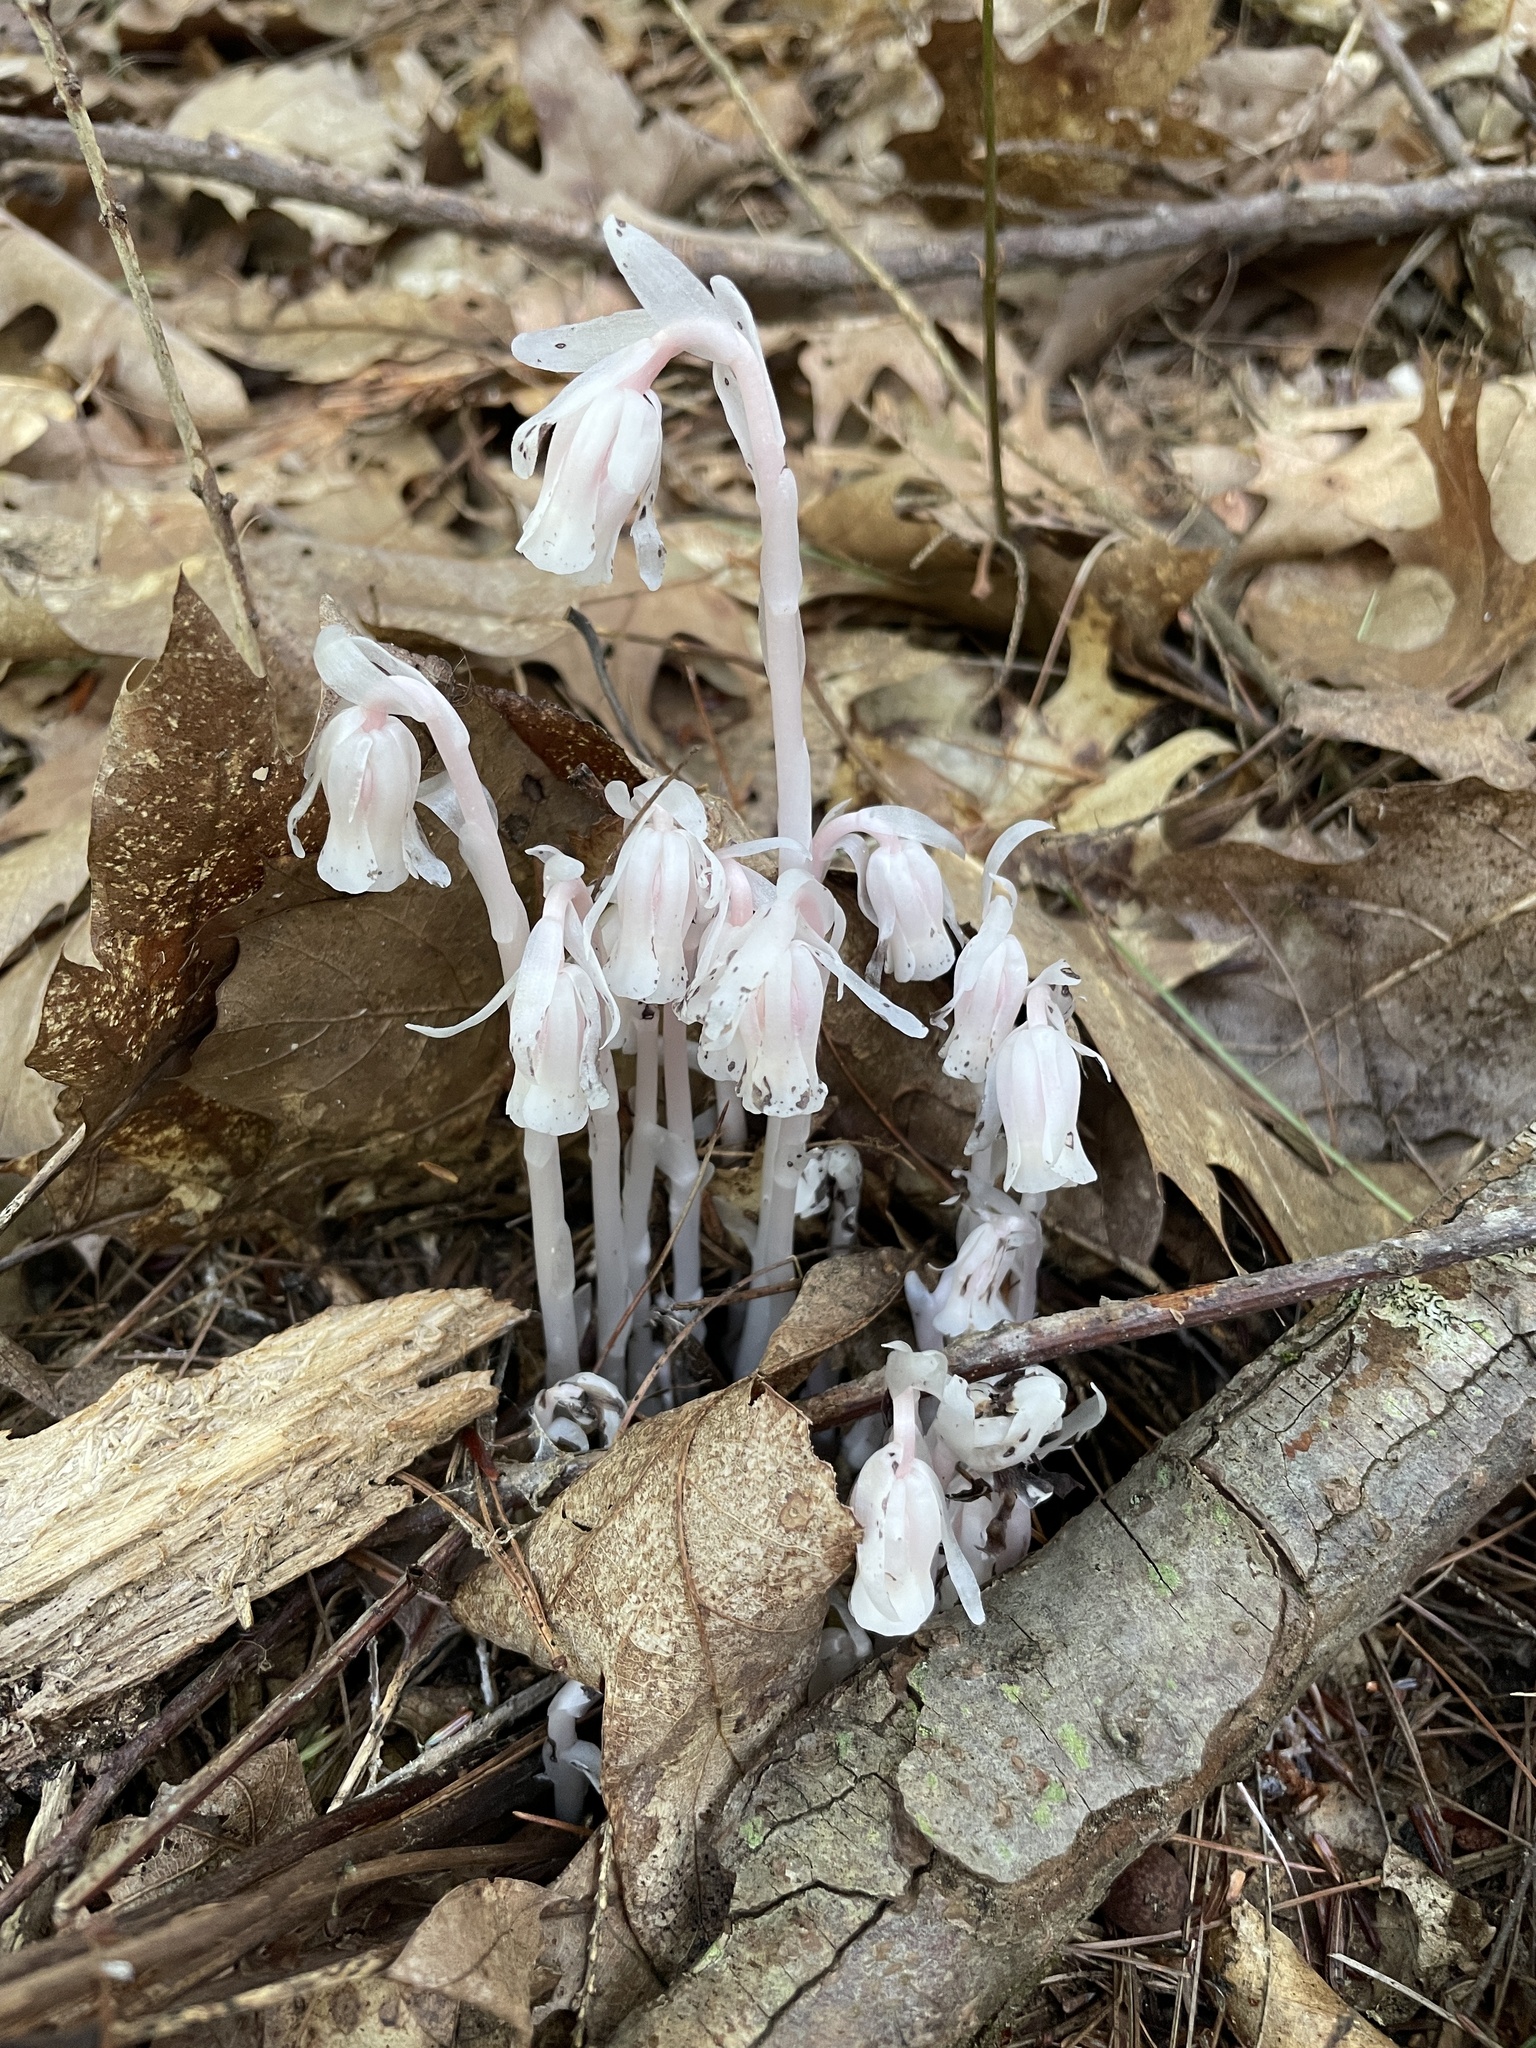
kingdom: Plantae
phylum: Tracheophyta
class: Magnoliopsida
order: Ericales
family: Ericaceae
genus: Monotropa
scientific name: Monotropa uniflora
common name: Convulsion root
